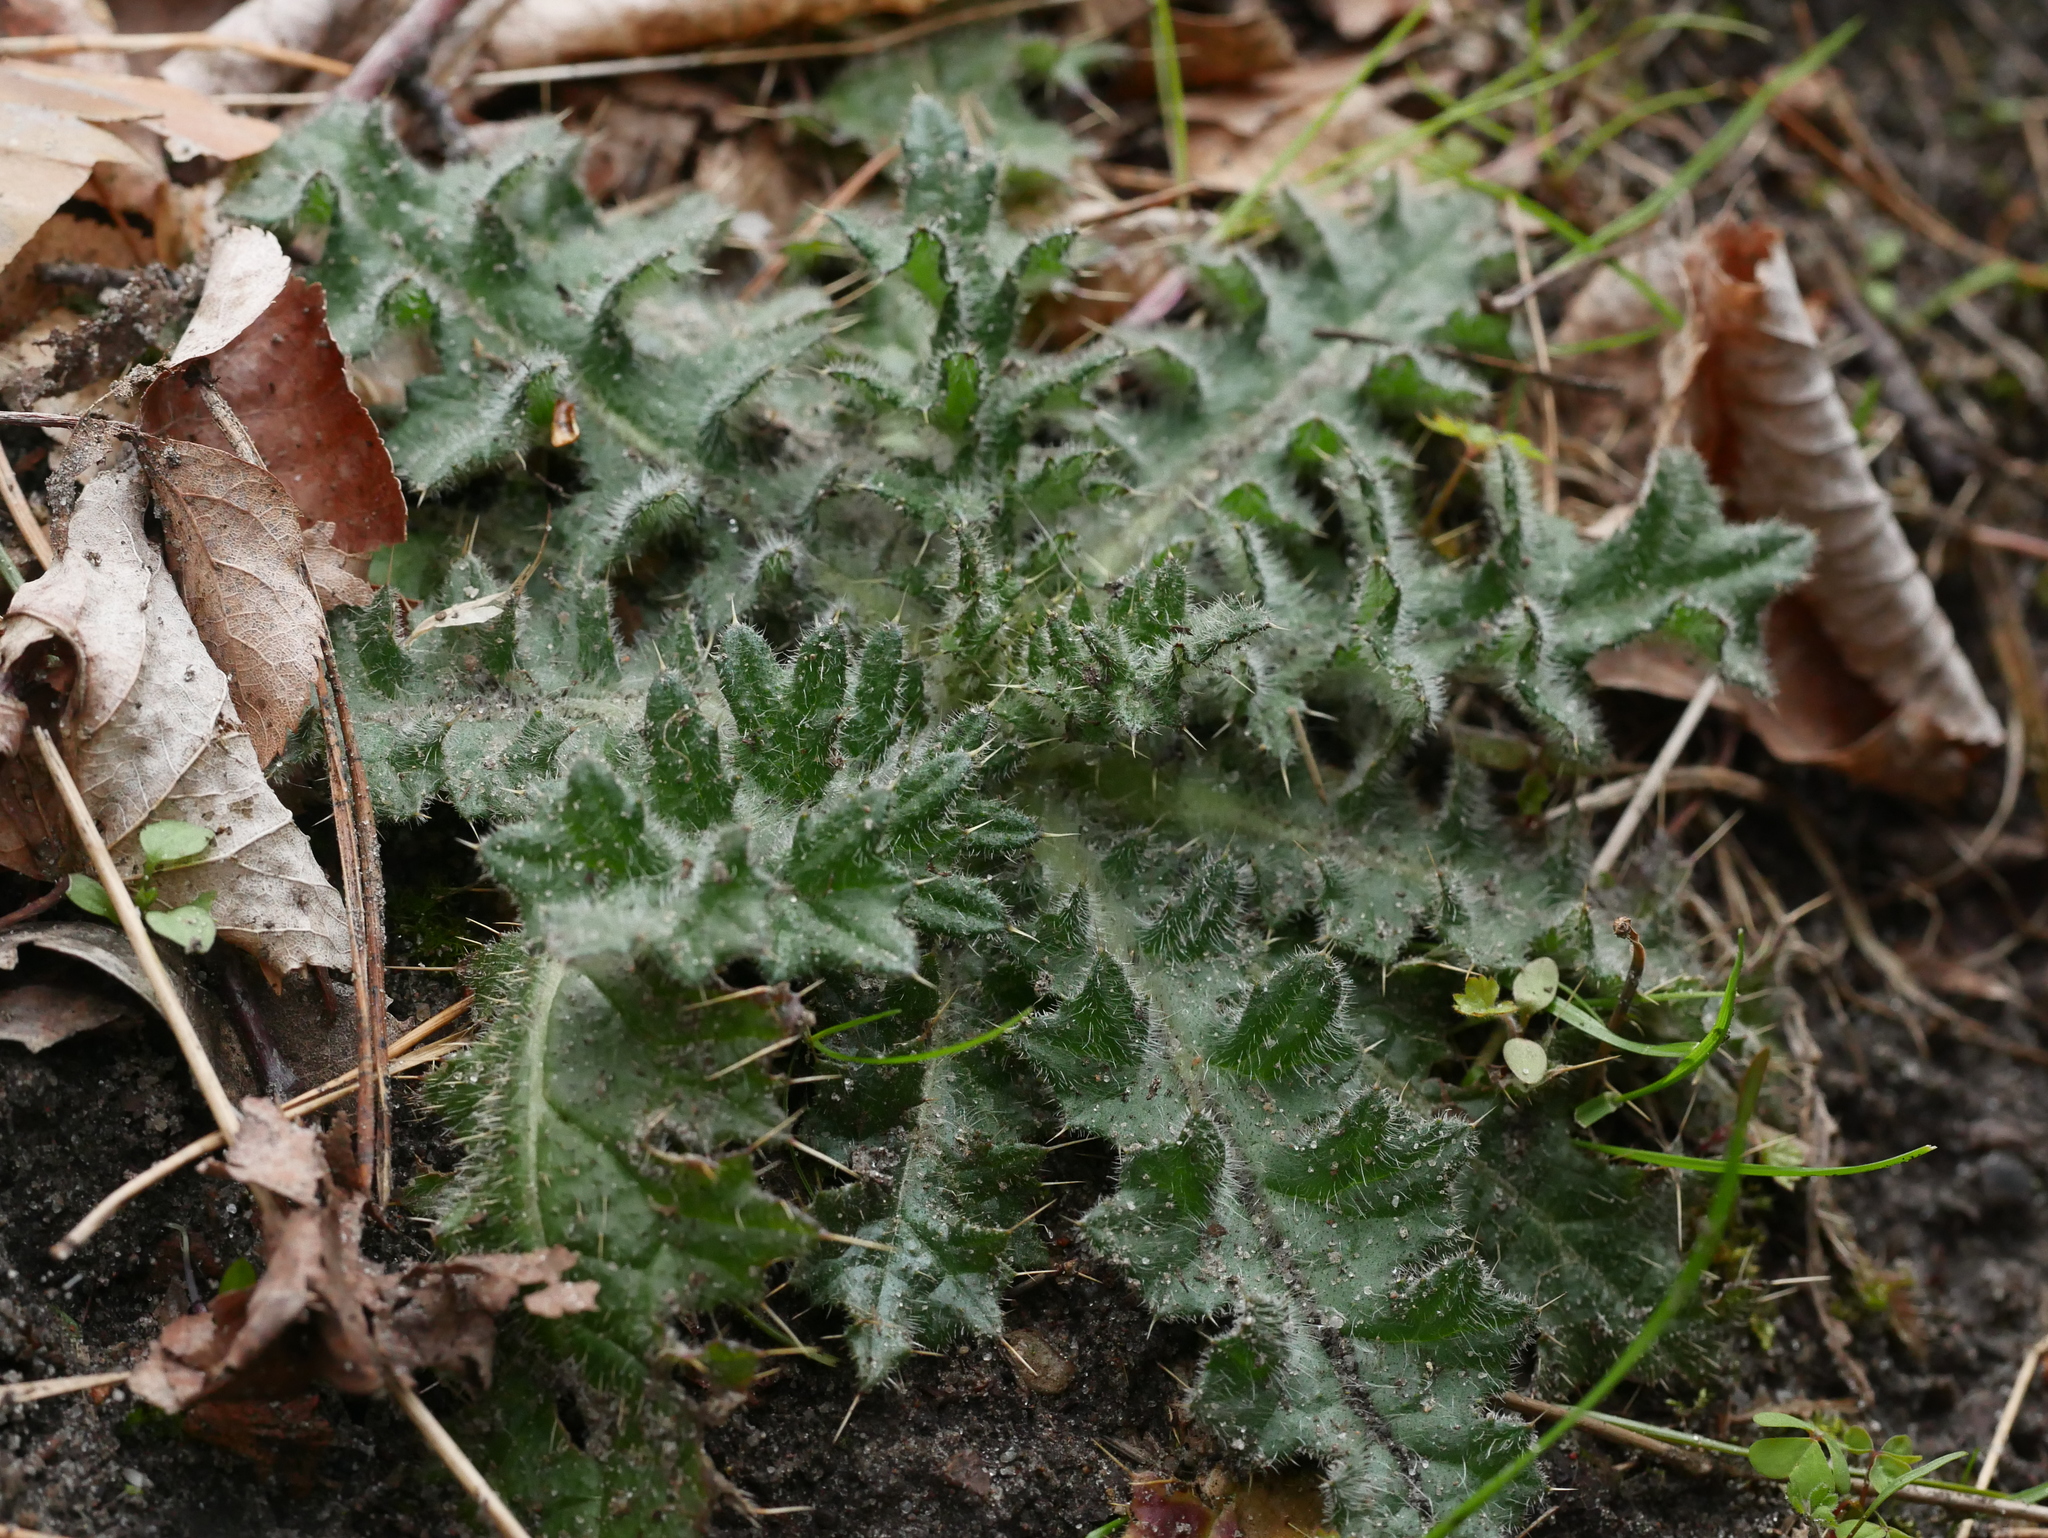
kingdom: Plantae
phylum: Tracheophyta
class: Magnoliopsida
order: Asterales
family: Asteraceae
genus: Cirsium
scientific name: Cirsium vulgare
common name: Bull thistle
